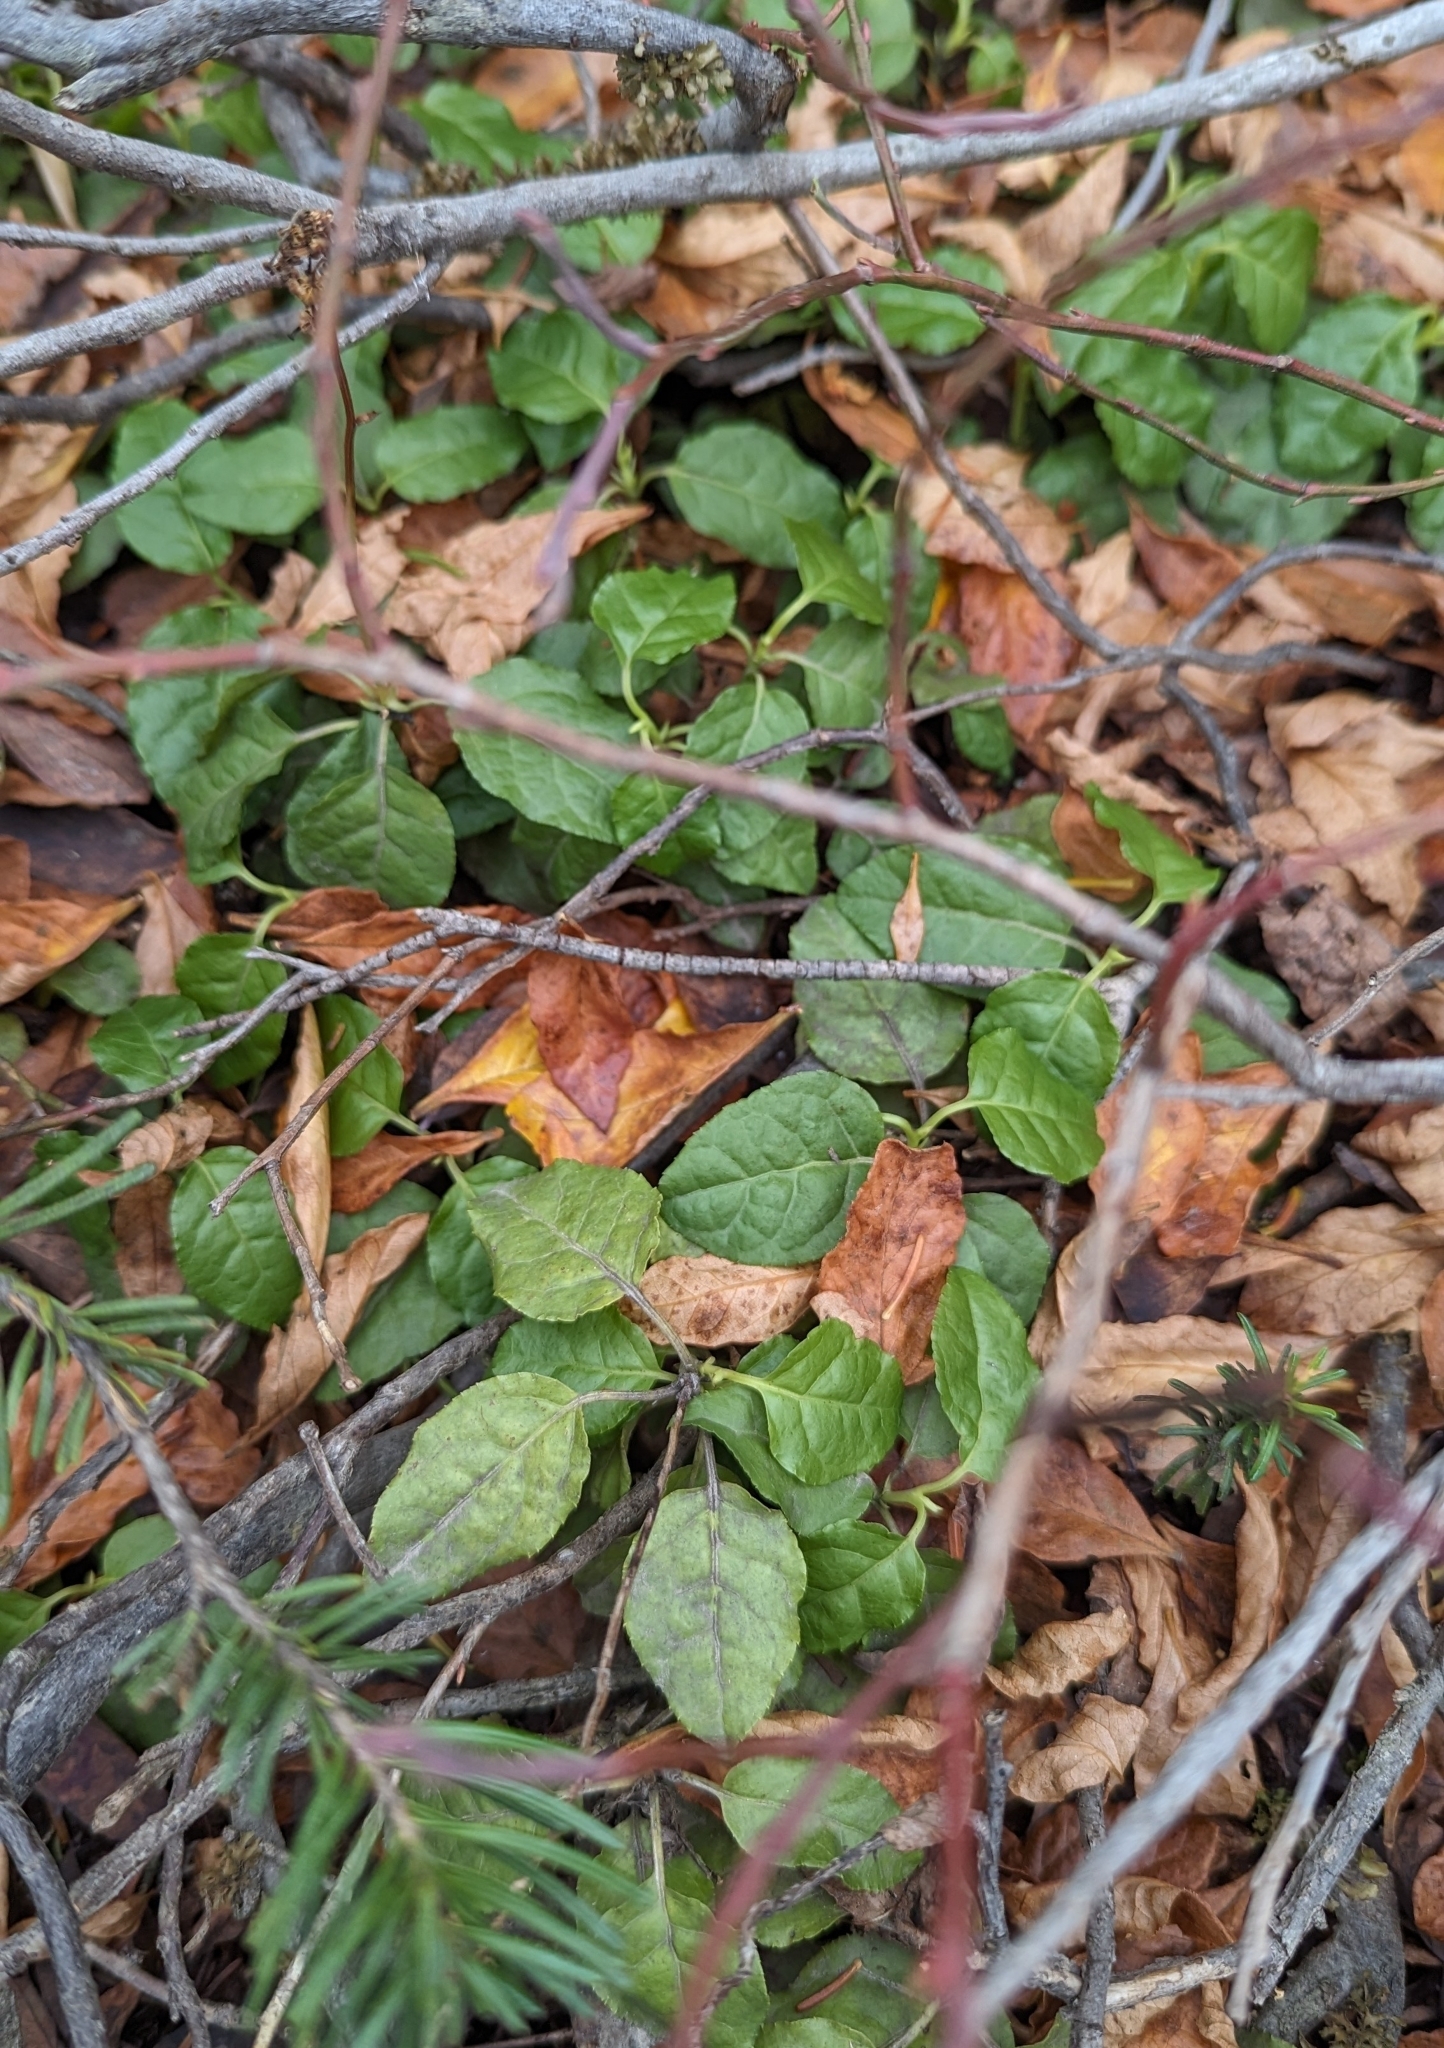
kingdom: Plantae
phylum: Tracheophyta
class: Magnoliopsida
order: Ericales
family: Ericaceae
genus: Orthilia
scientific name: Orthilia secunda
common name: One-sided orthilia
